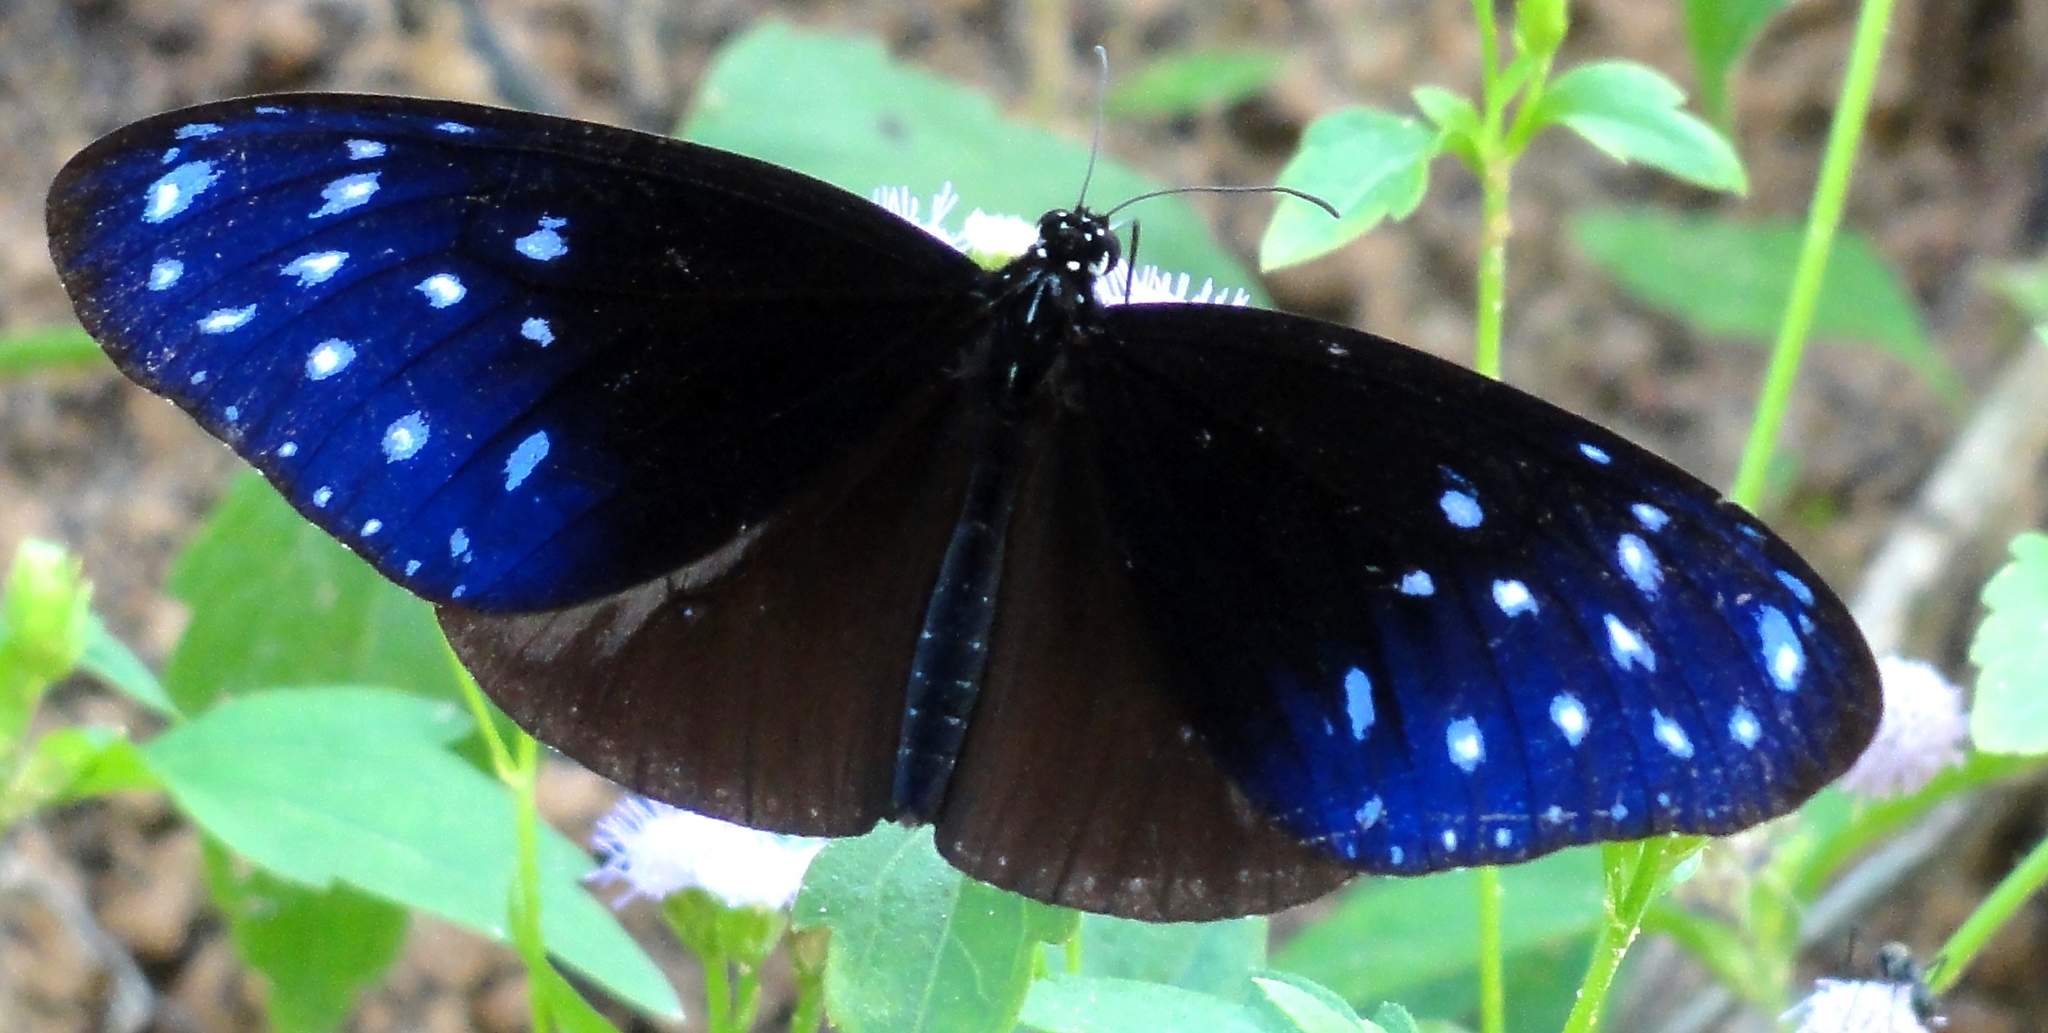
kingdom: Animalia
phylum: Arthropoda
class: Insecta
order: Lepidoptera
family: Nymphalidae
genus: Euploea
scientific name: Euploea mulciber
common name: Striped blue crow butterfly
